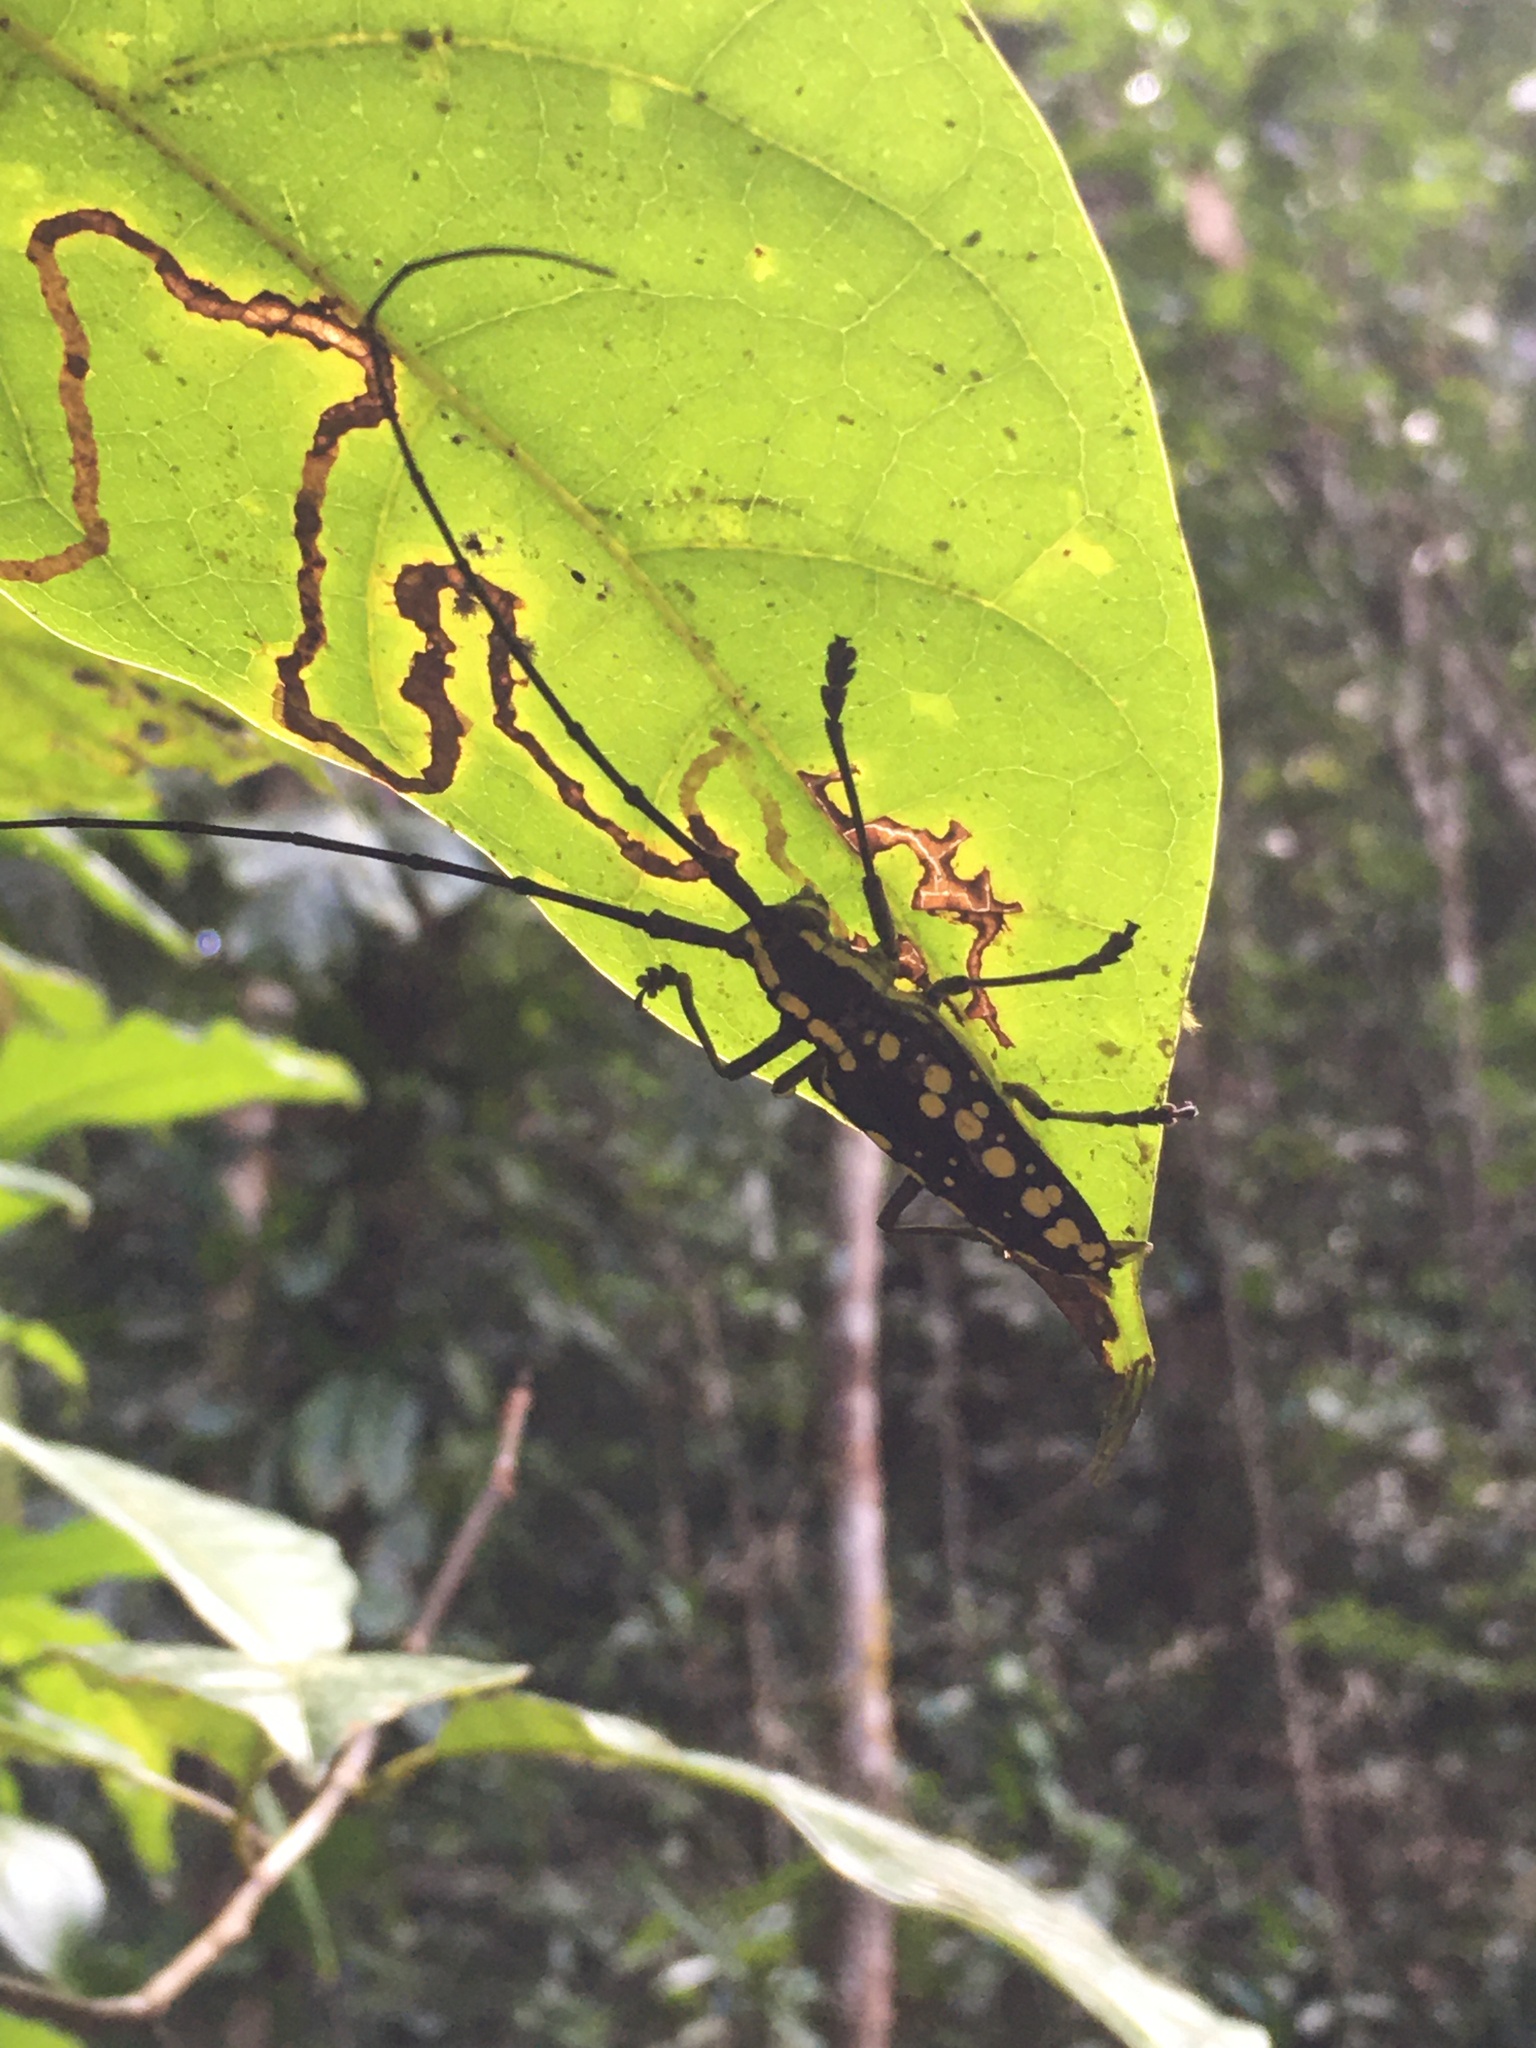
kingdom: Animalia
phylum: Arthropoda
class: Insecta
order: Coleoptera
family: Cerambycidae
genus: Taeniotes
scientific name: Taeniotes farinosus
